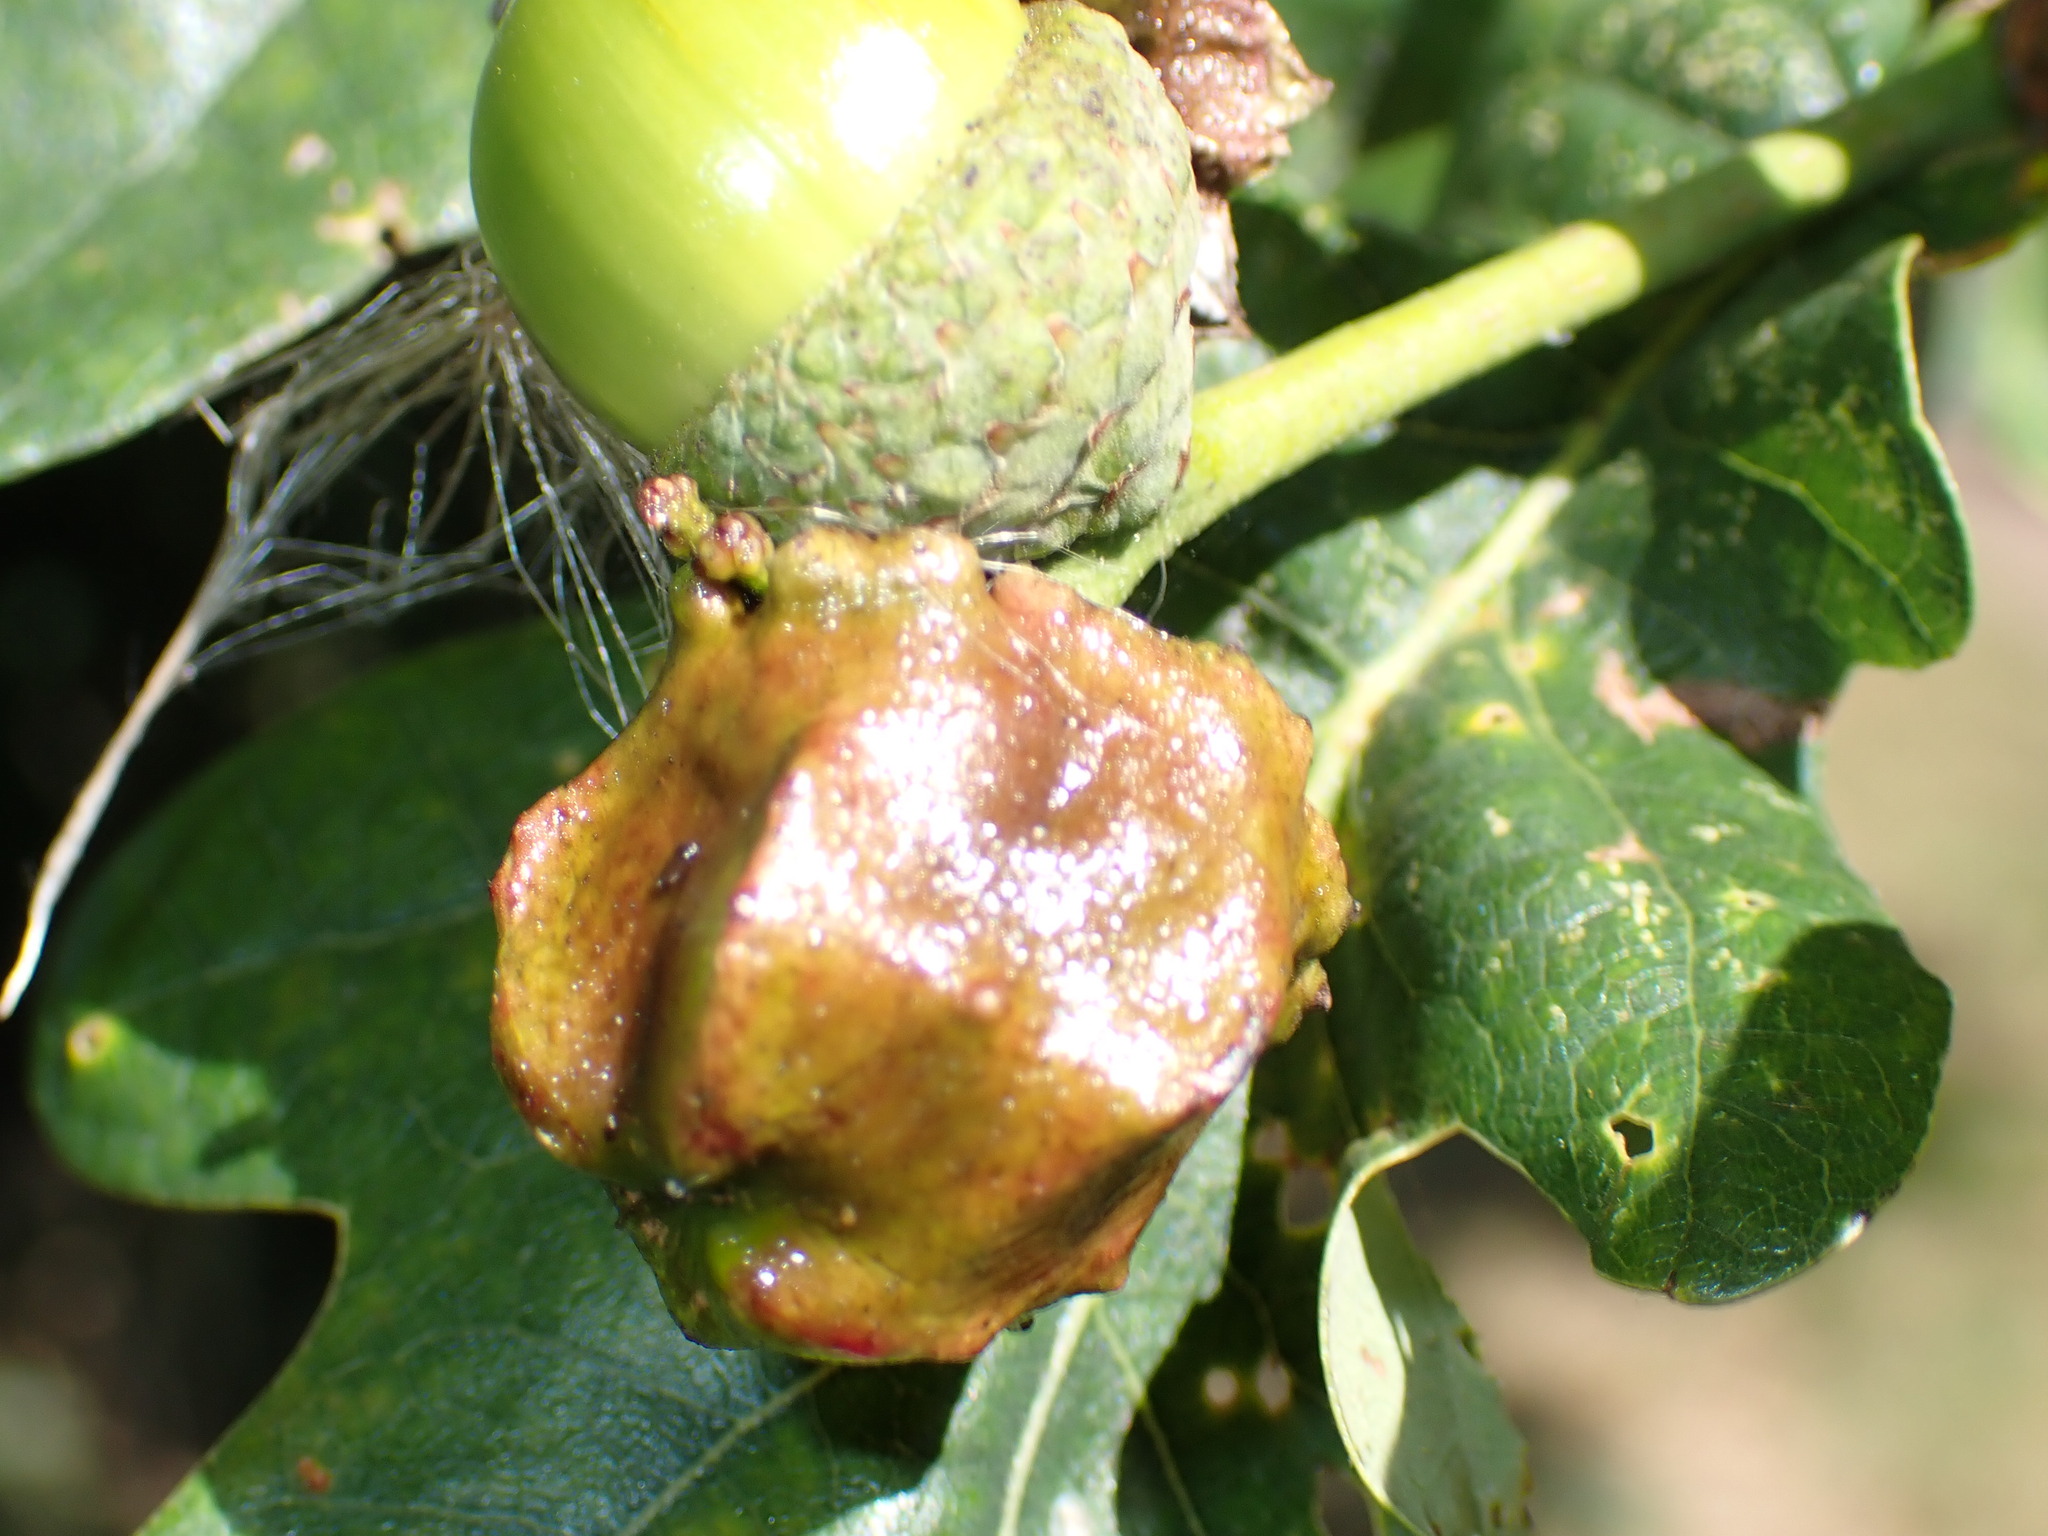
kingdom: Animalia
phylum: Arthropoda
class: Insecta
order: Hymenoptera
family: Cynipidae
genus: Andricus
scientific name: Andricus quercuscalicis
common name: Knopper gall
